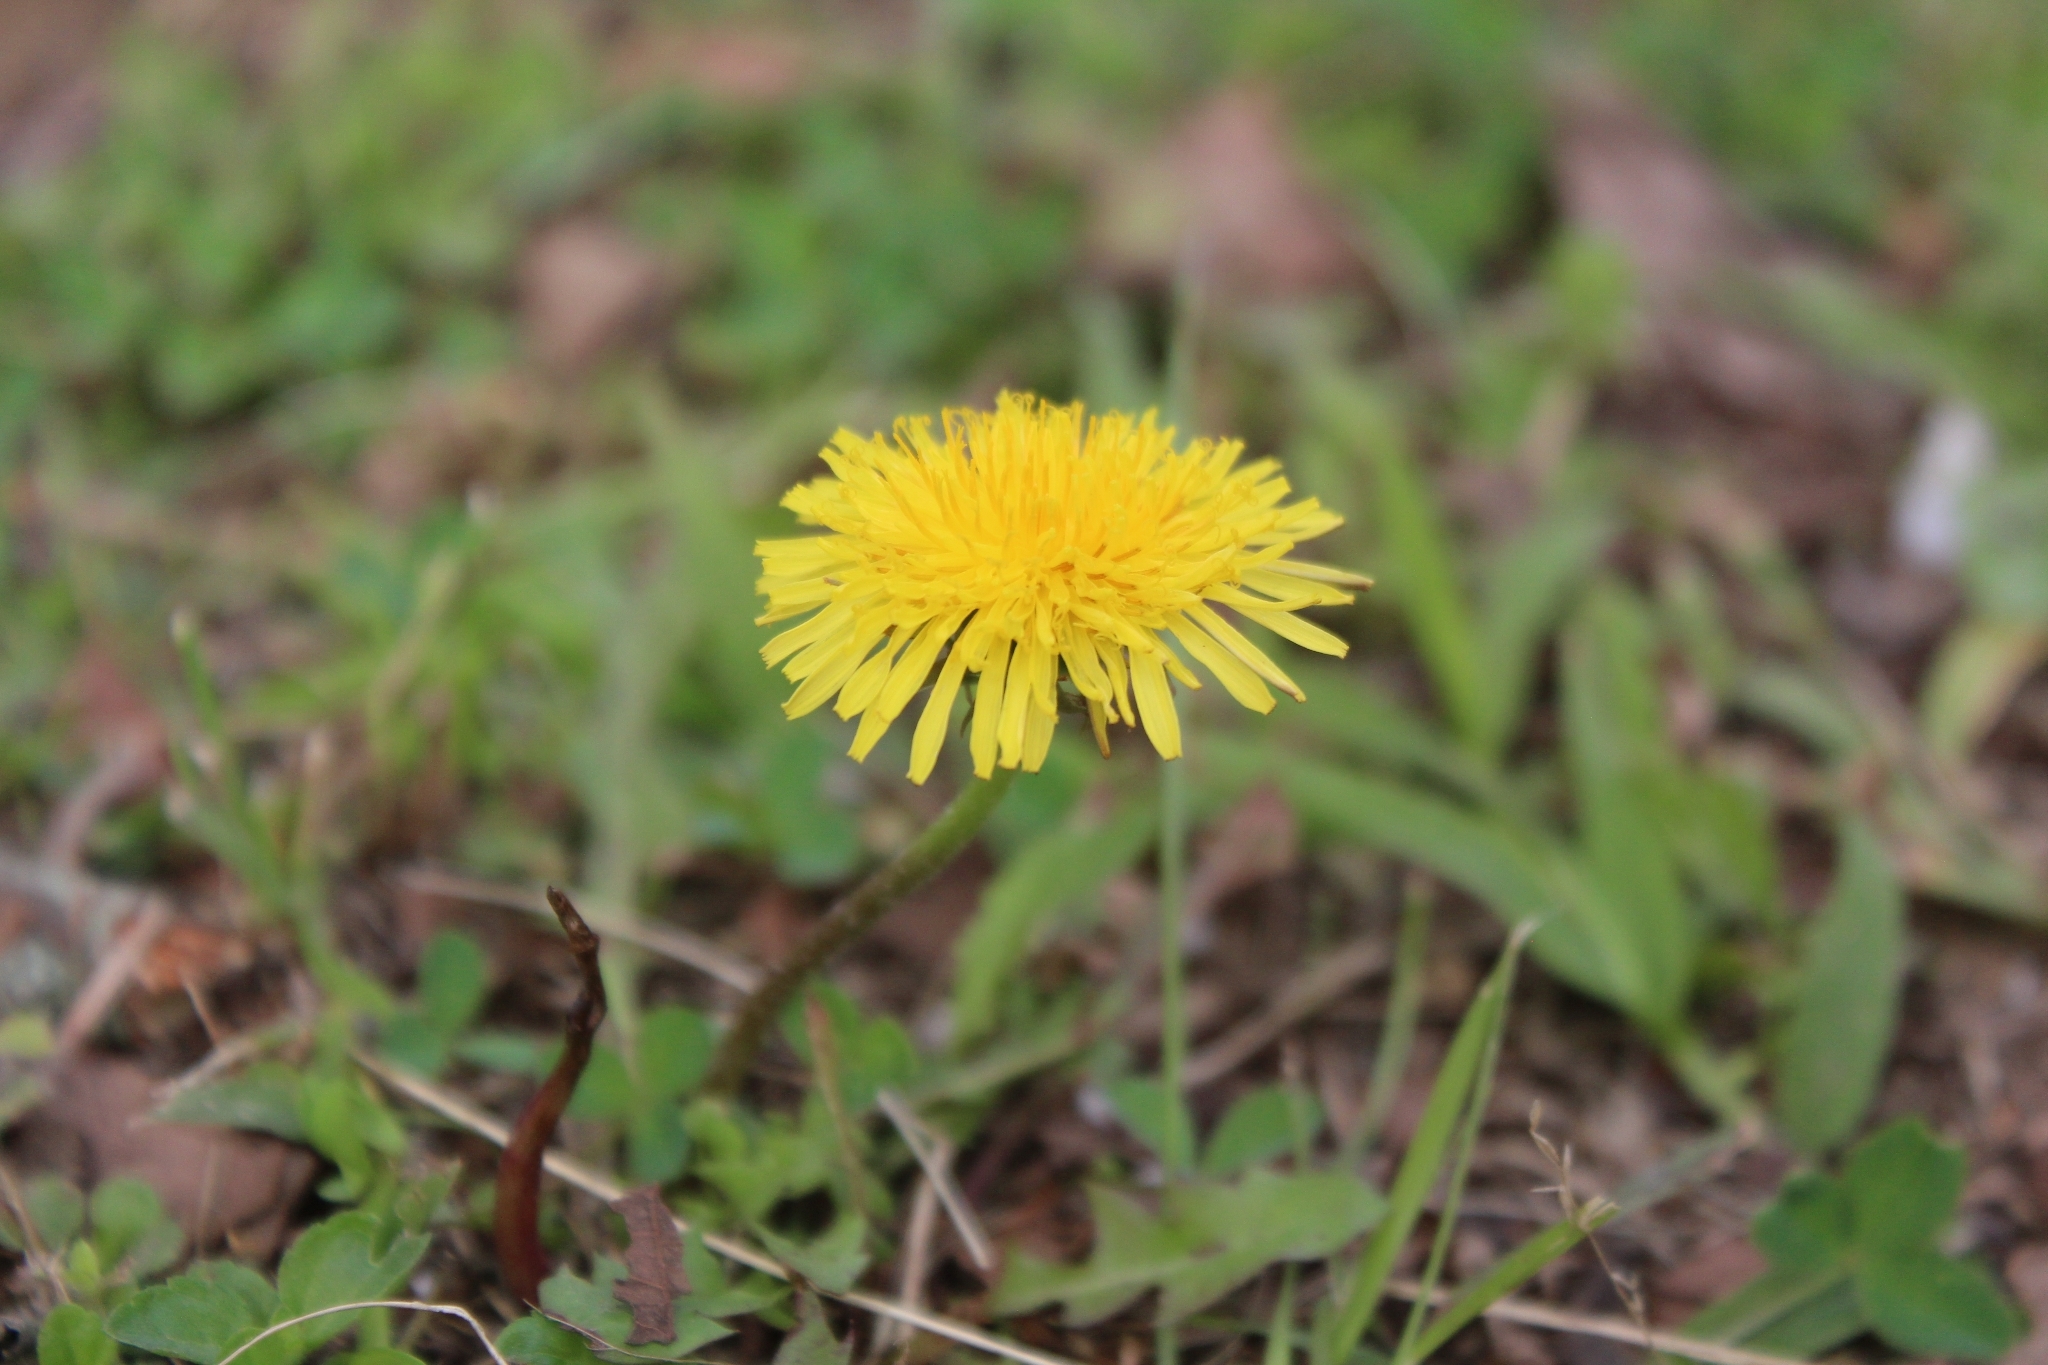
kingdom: Plantae
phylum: Tracheophyta
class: Magnoliopsida
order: Asterales
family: Asteraceae
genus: Taraxacum
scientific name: Taraxacum officinale
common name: Common dandelion
